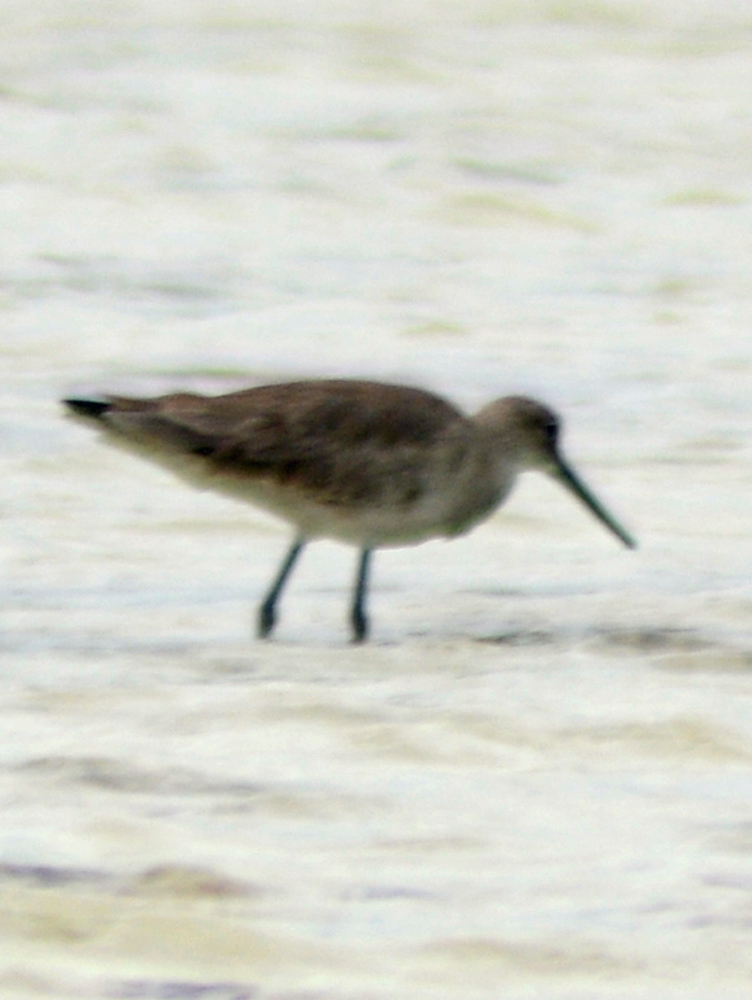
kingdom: Animalia
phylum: Chordata
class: Aves
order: Charadriiformes
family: Scolopacidae
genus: Tringa
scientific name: Tringa semipalmata
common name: Willet
